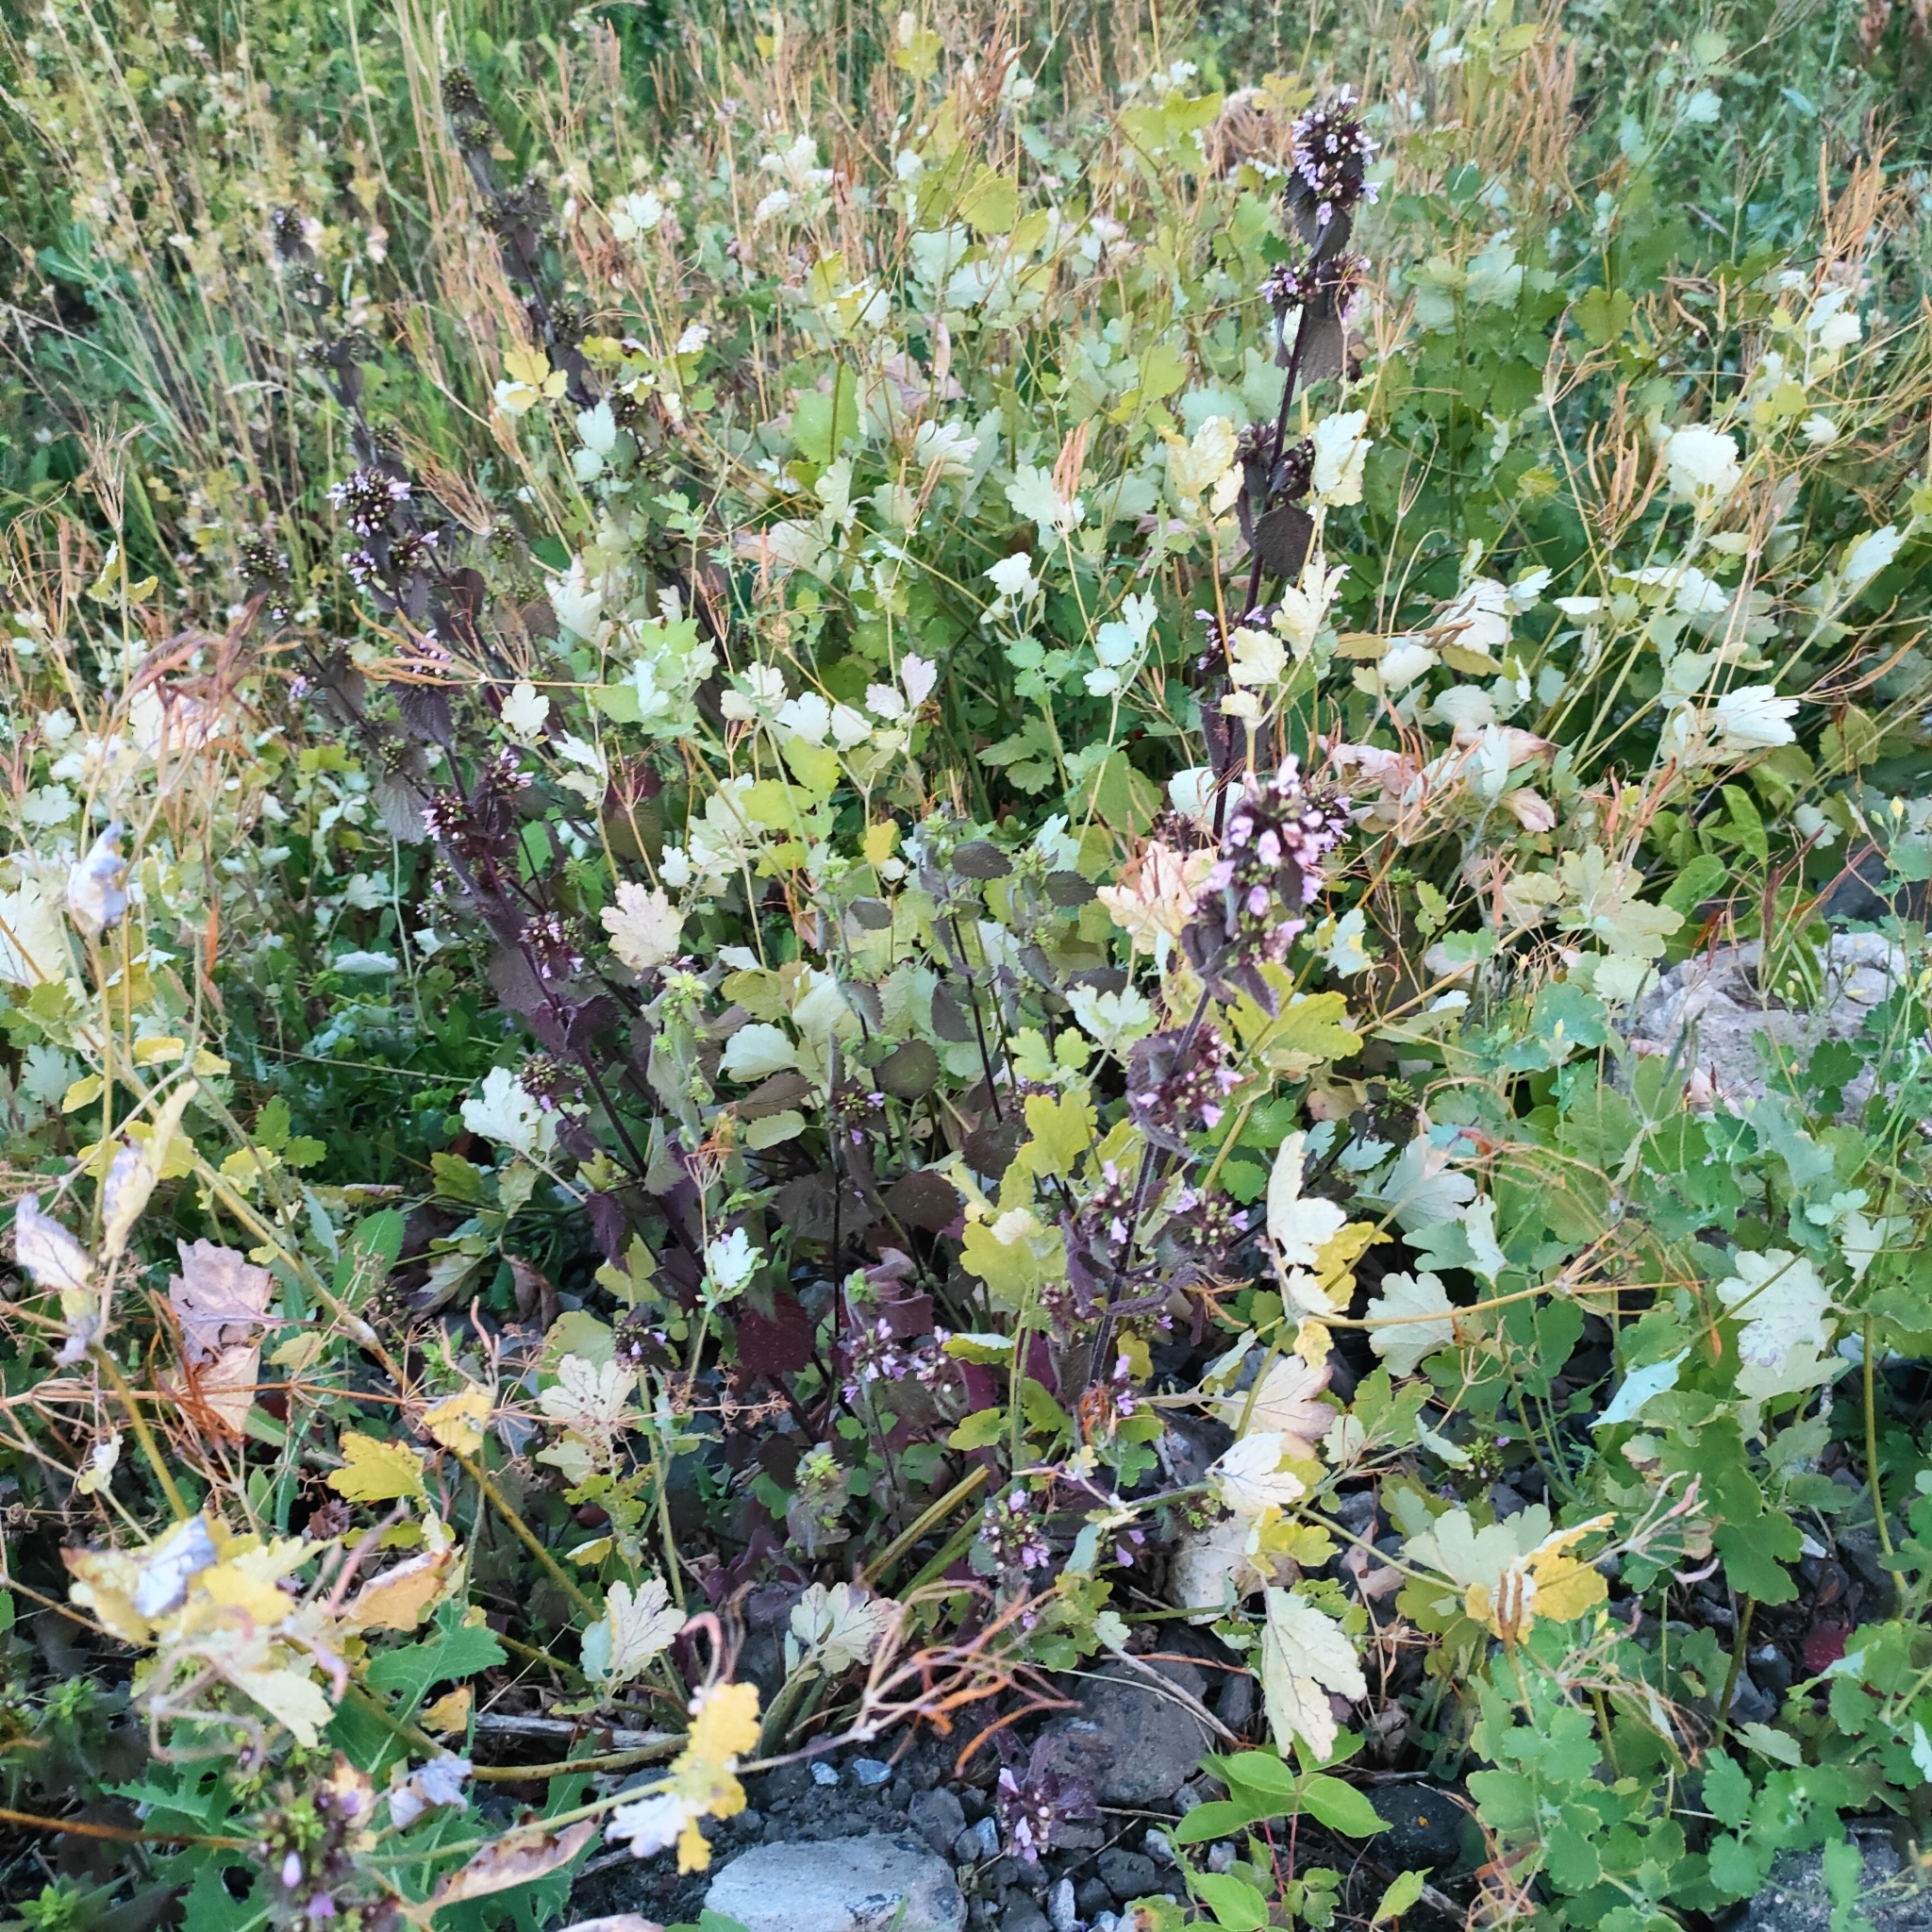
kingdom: Plantae
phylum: Tracheophyta
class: Magnoliopsida
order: Lamiales
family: Lamiaceae
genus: Ballota
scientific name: Ballota nigra
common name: Black horehound
